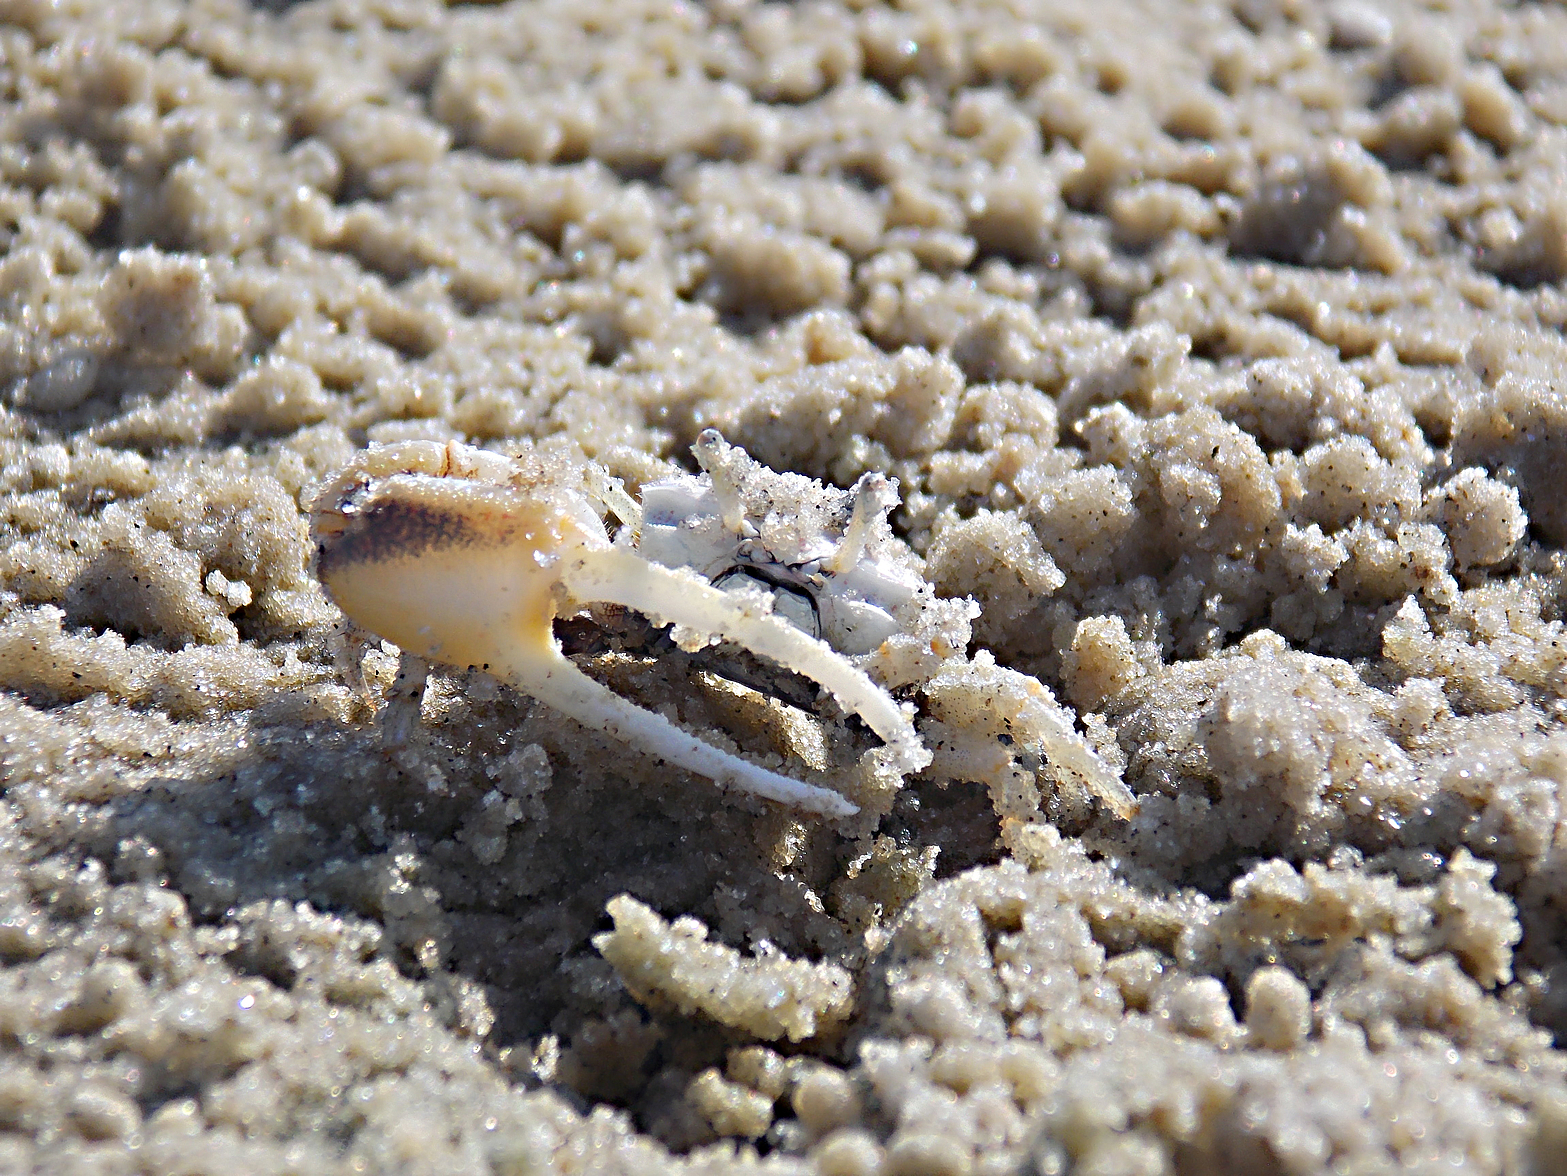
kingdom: Animalia
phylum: Arthropoda
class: Malacostraca
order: Decapoda
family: Ocypodidae
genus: Leptuca
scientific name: Leptuca leptodactyla
